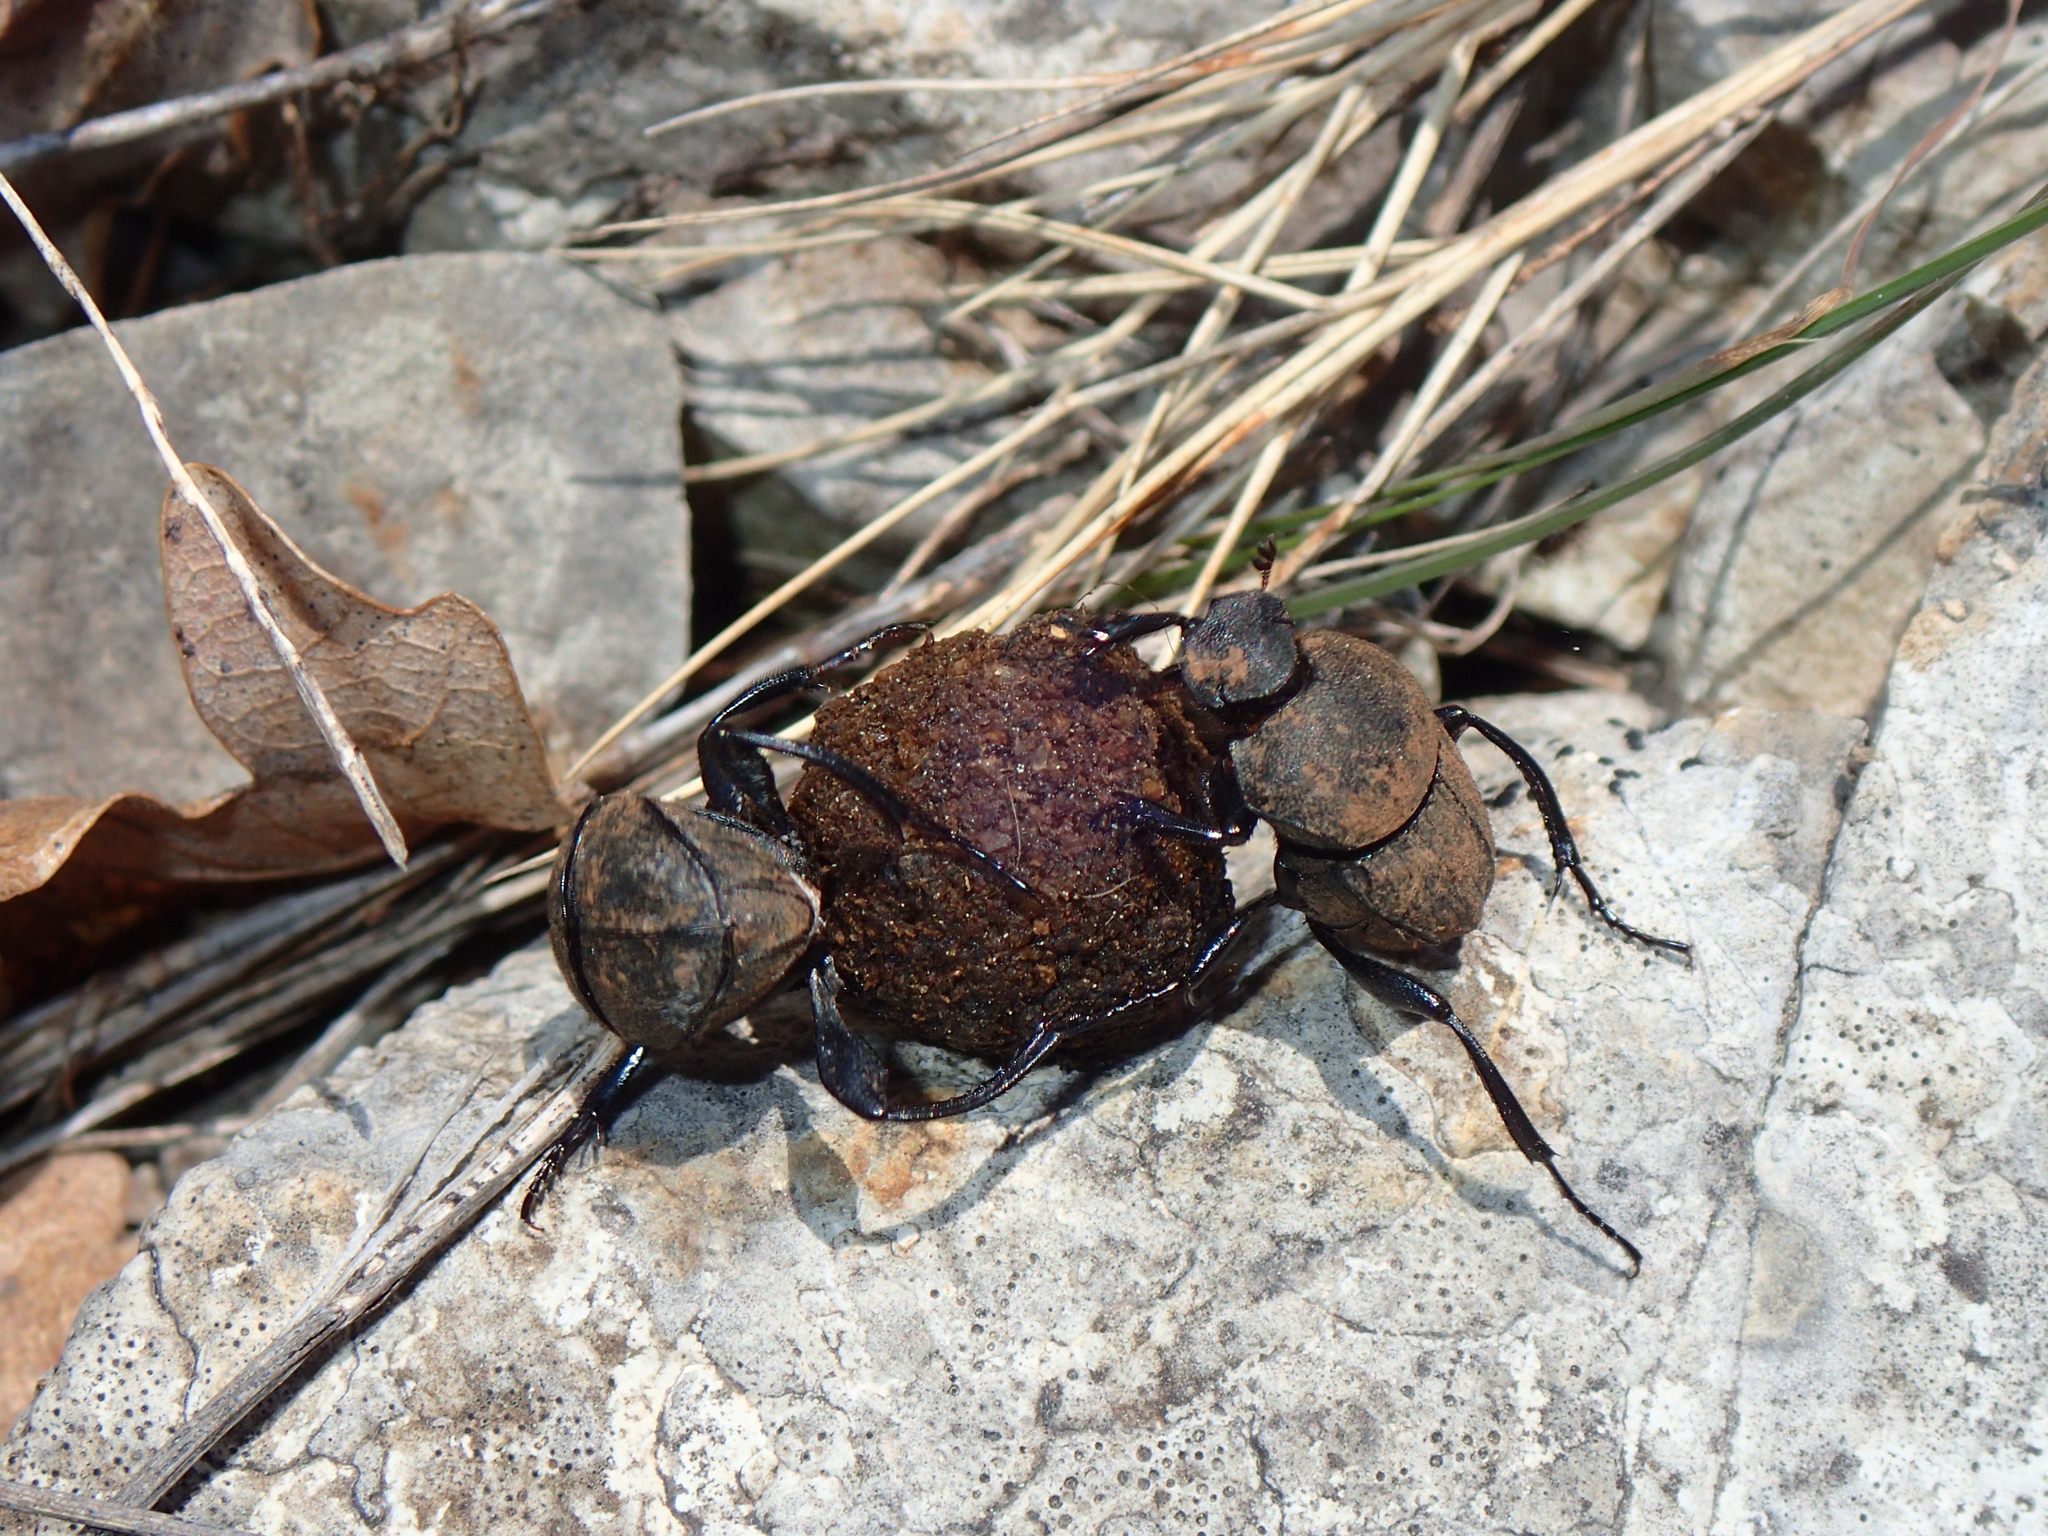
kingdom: Animalia
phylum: Arthropoda
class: Insecta
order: Coleoptera
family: Scarabaeidae
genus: Sisyphus
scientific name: Sisyphus schaefferi
